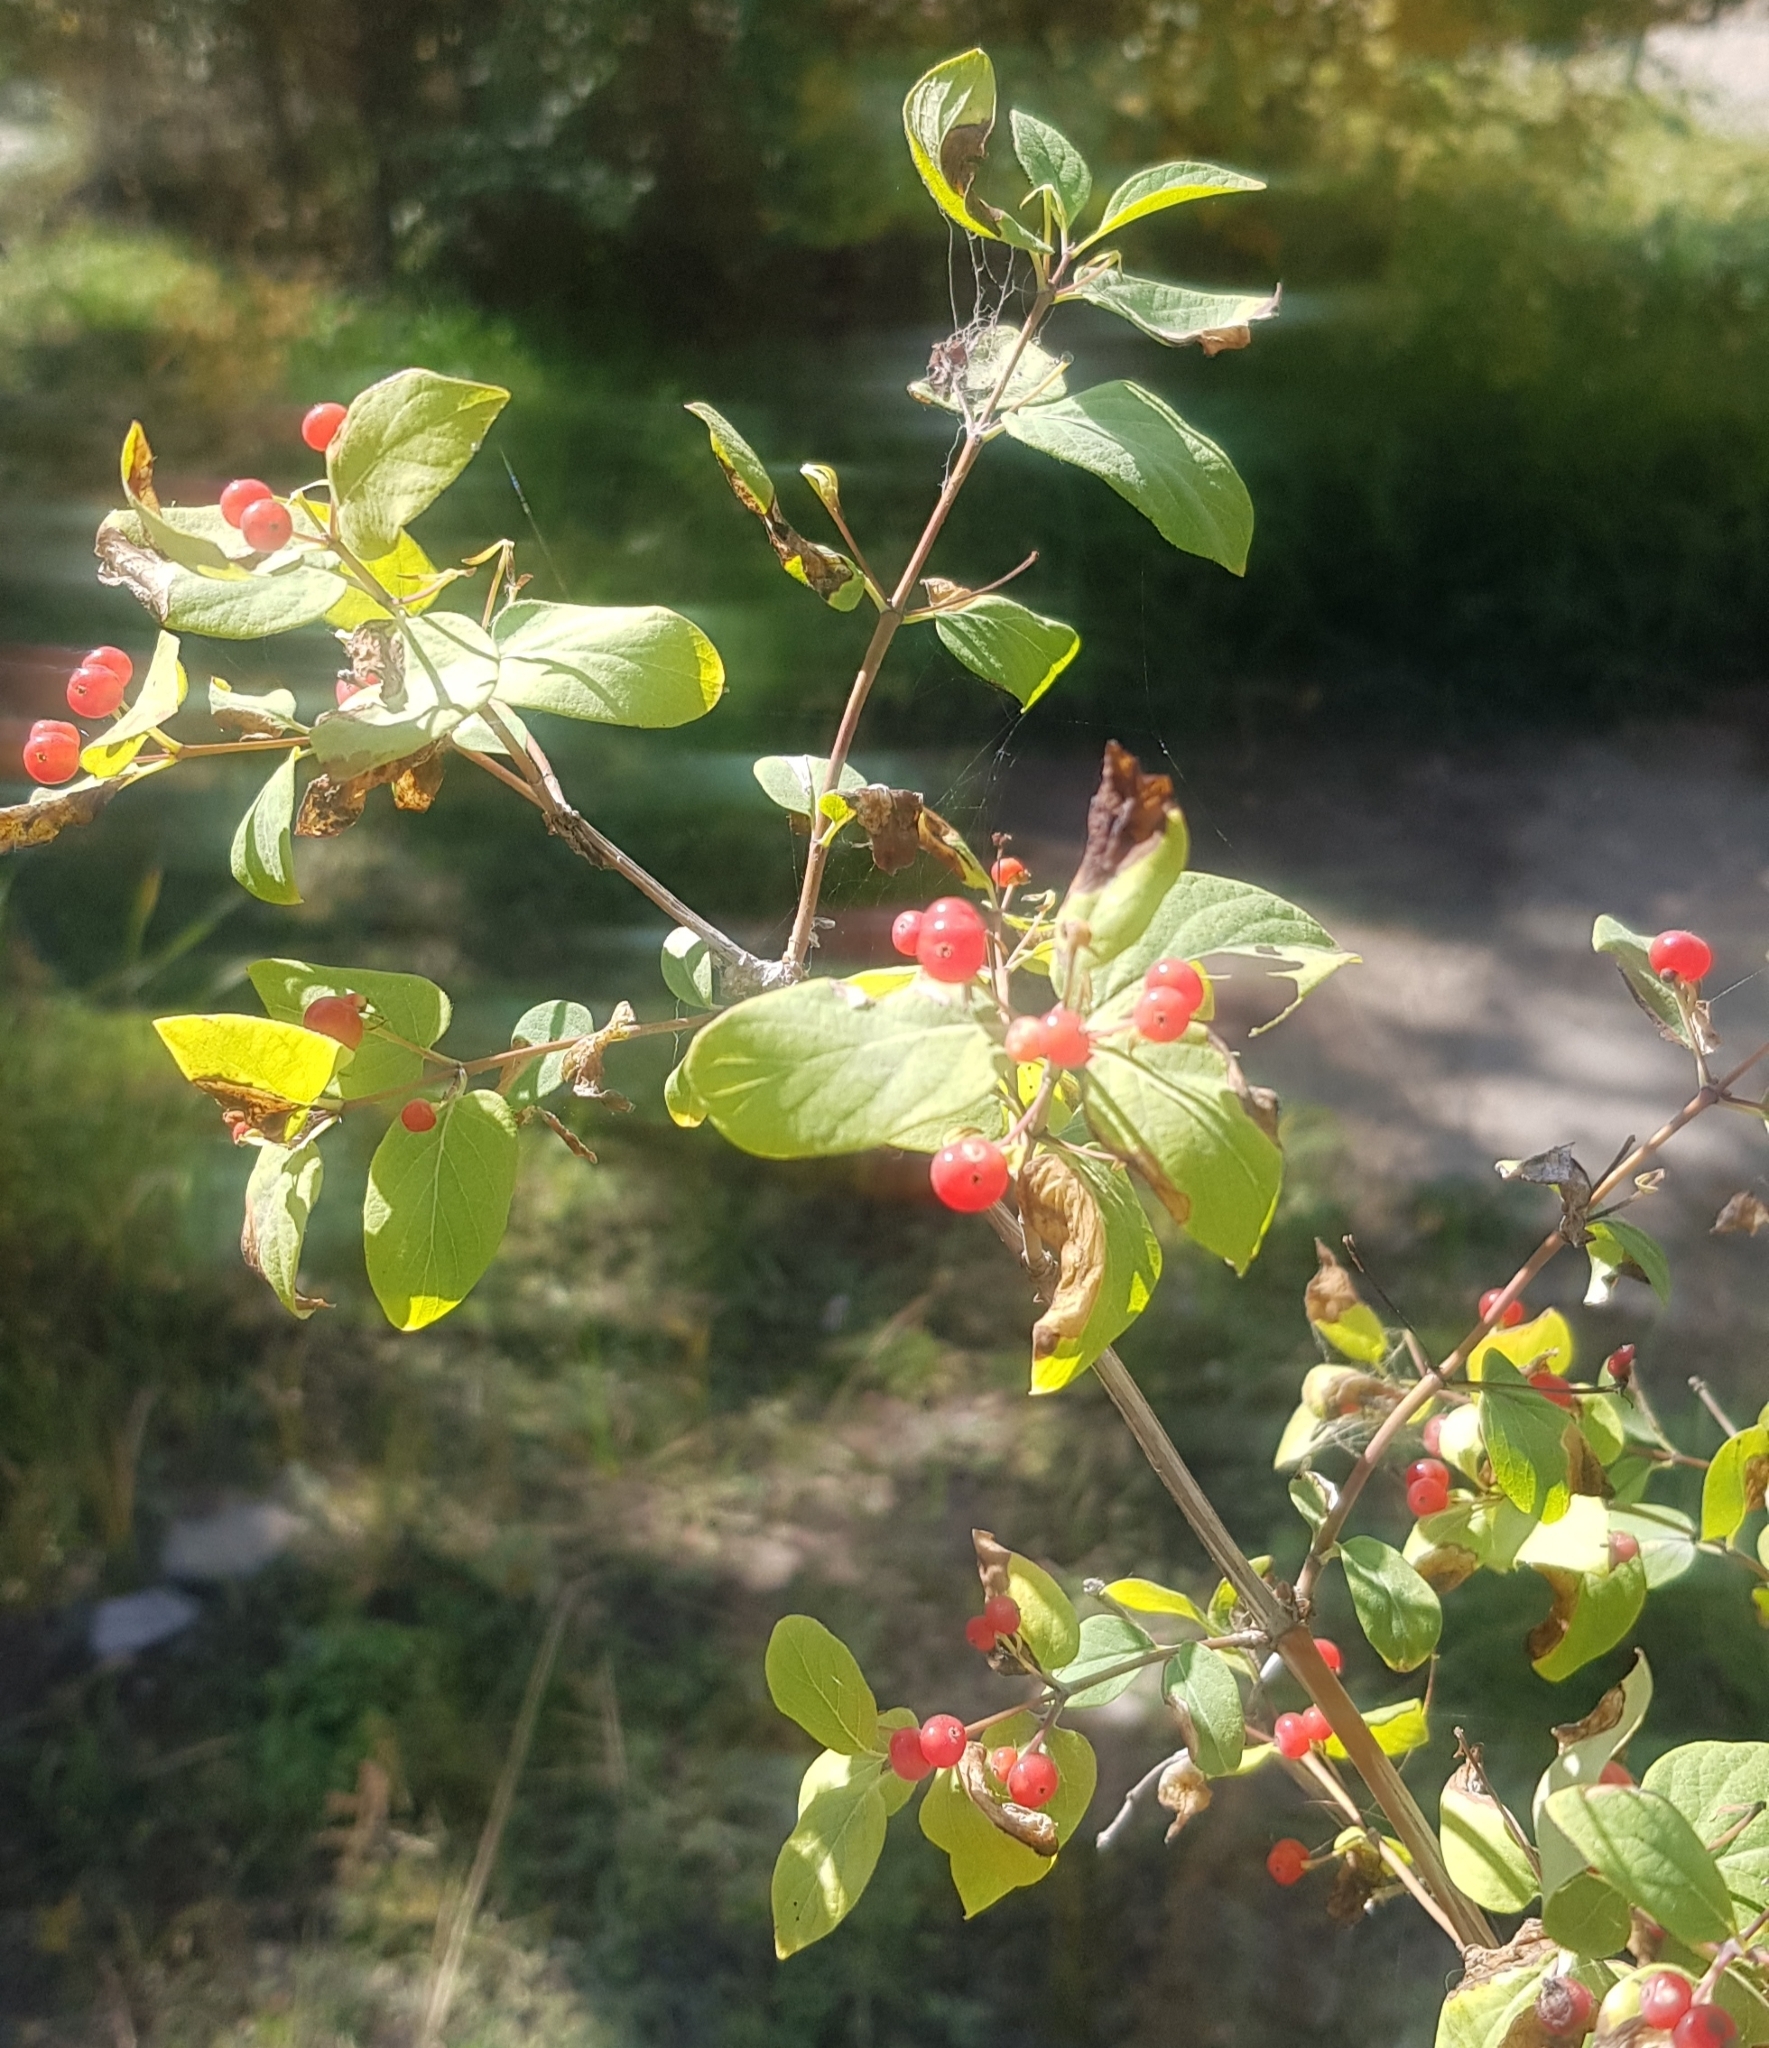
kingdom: Plantae
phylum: Tracheophyta
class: Magnoliopsida
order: Dipsacales
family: Caprifoliaceae
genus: Lonicera
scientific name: Lonicera tatarica
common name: Tatarian honeysuckle
